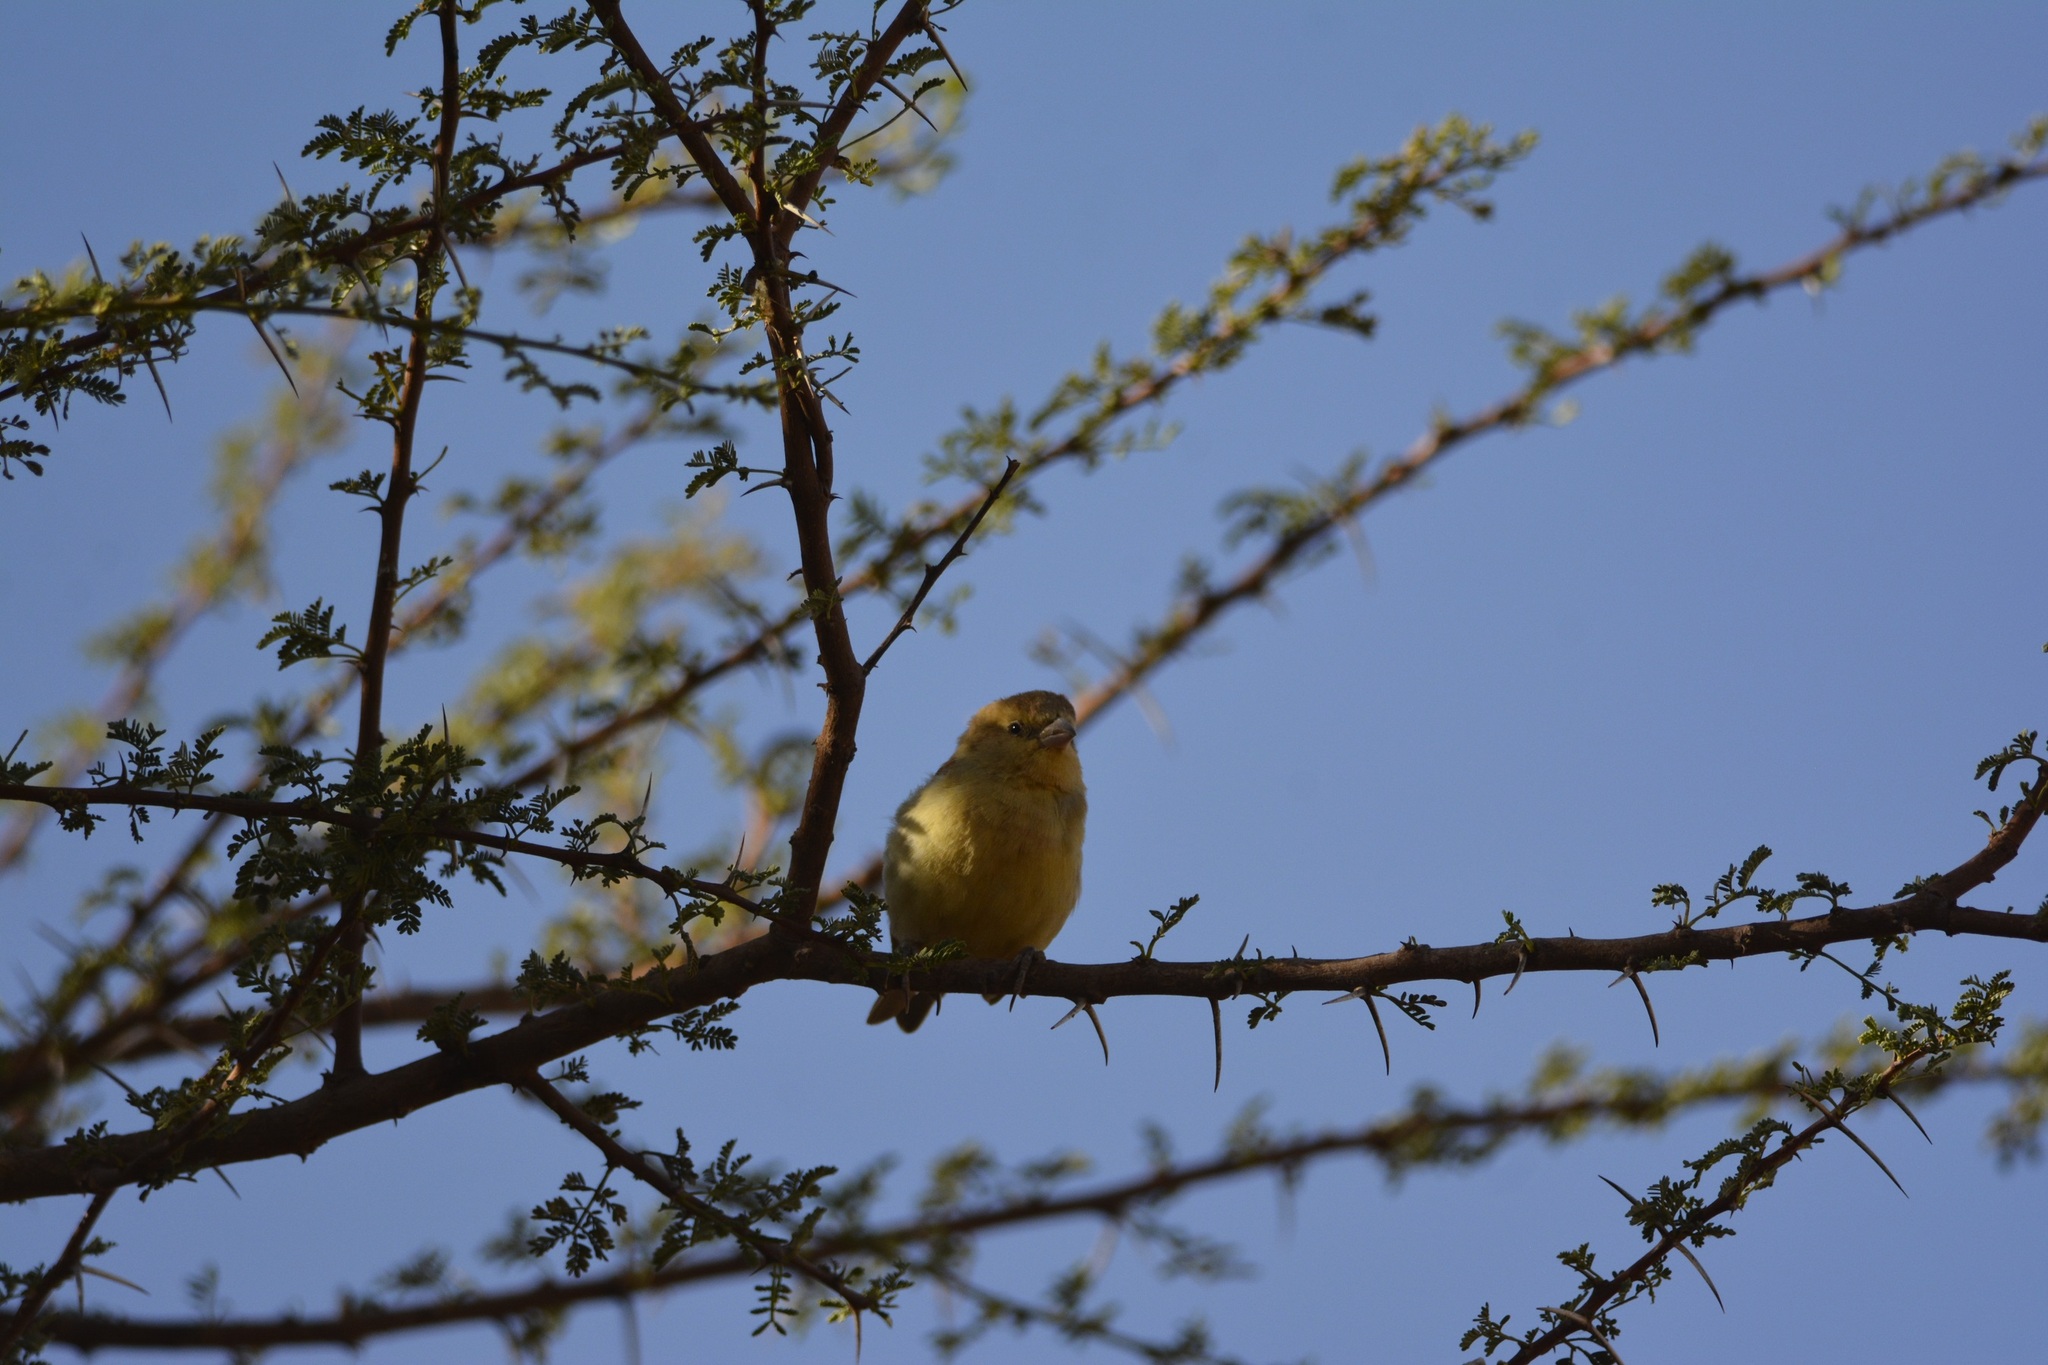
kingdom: Animalia
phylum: Chordata
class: Aves
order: Passeriformes
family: Passeridae
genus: Passer
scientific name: Passer luteus
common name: Sudan golden sparrow
